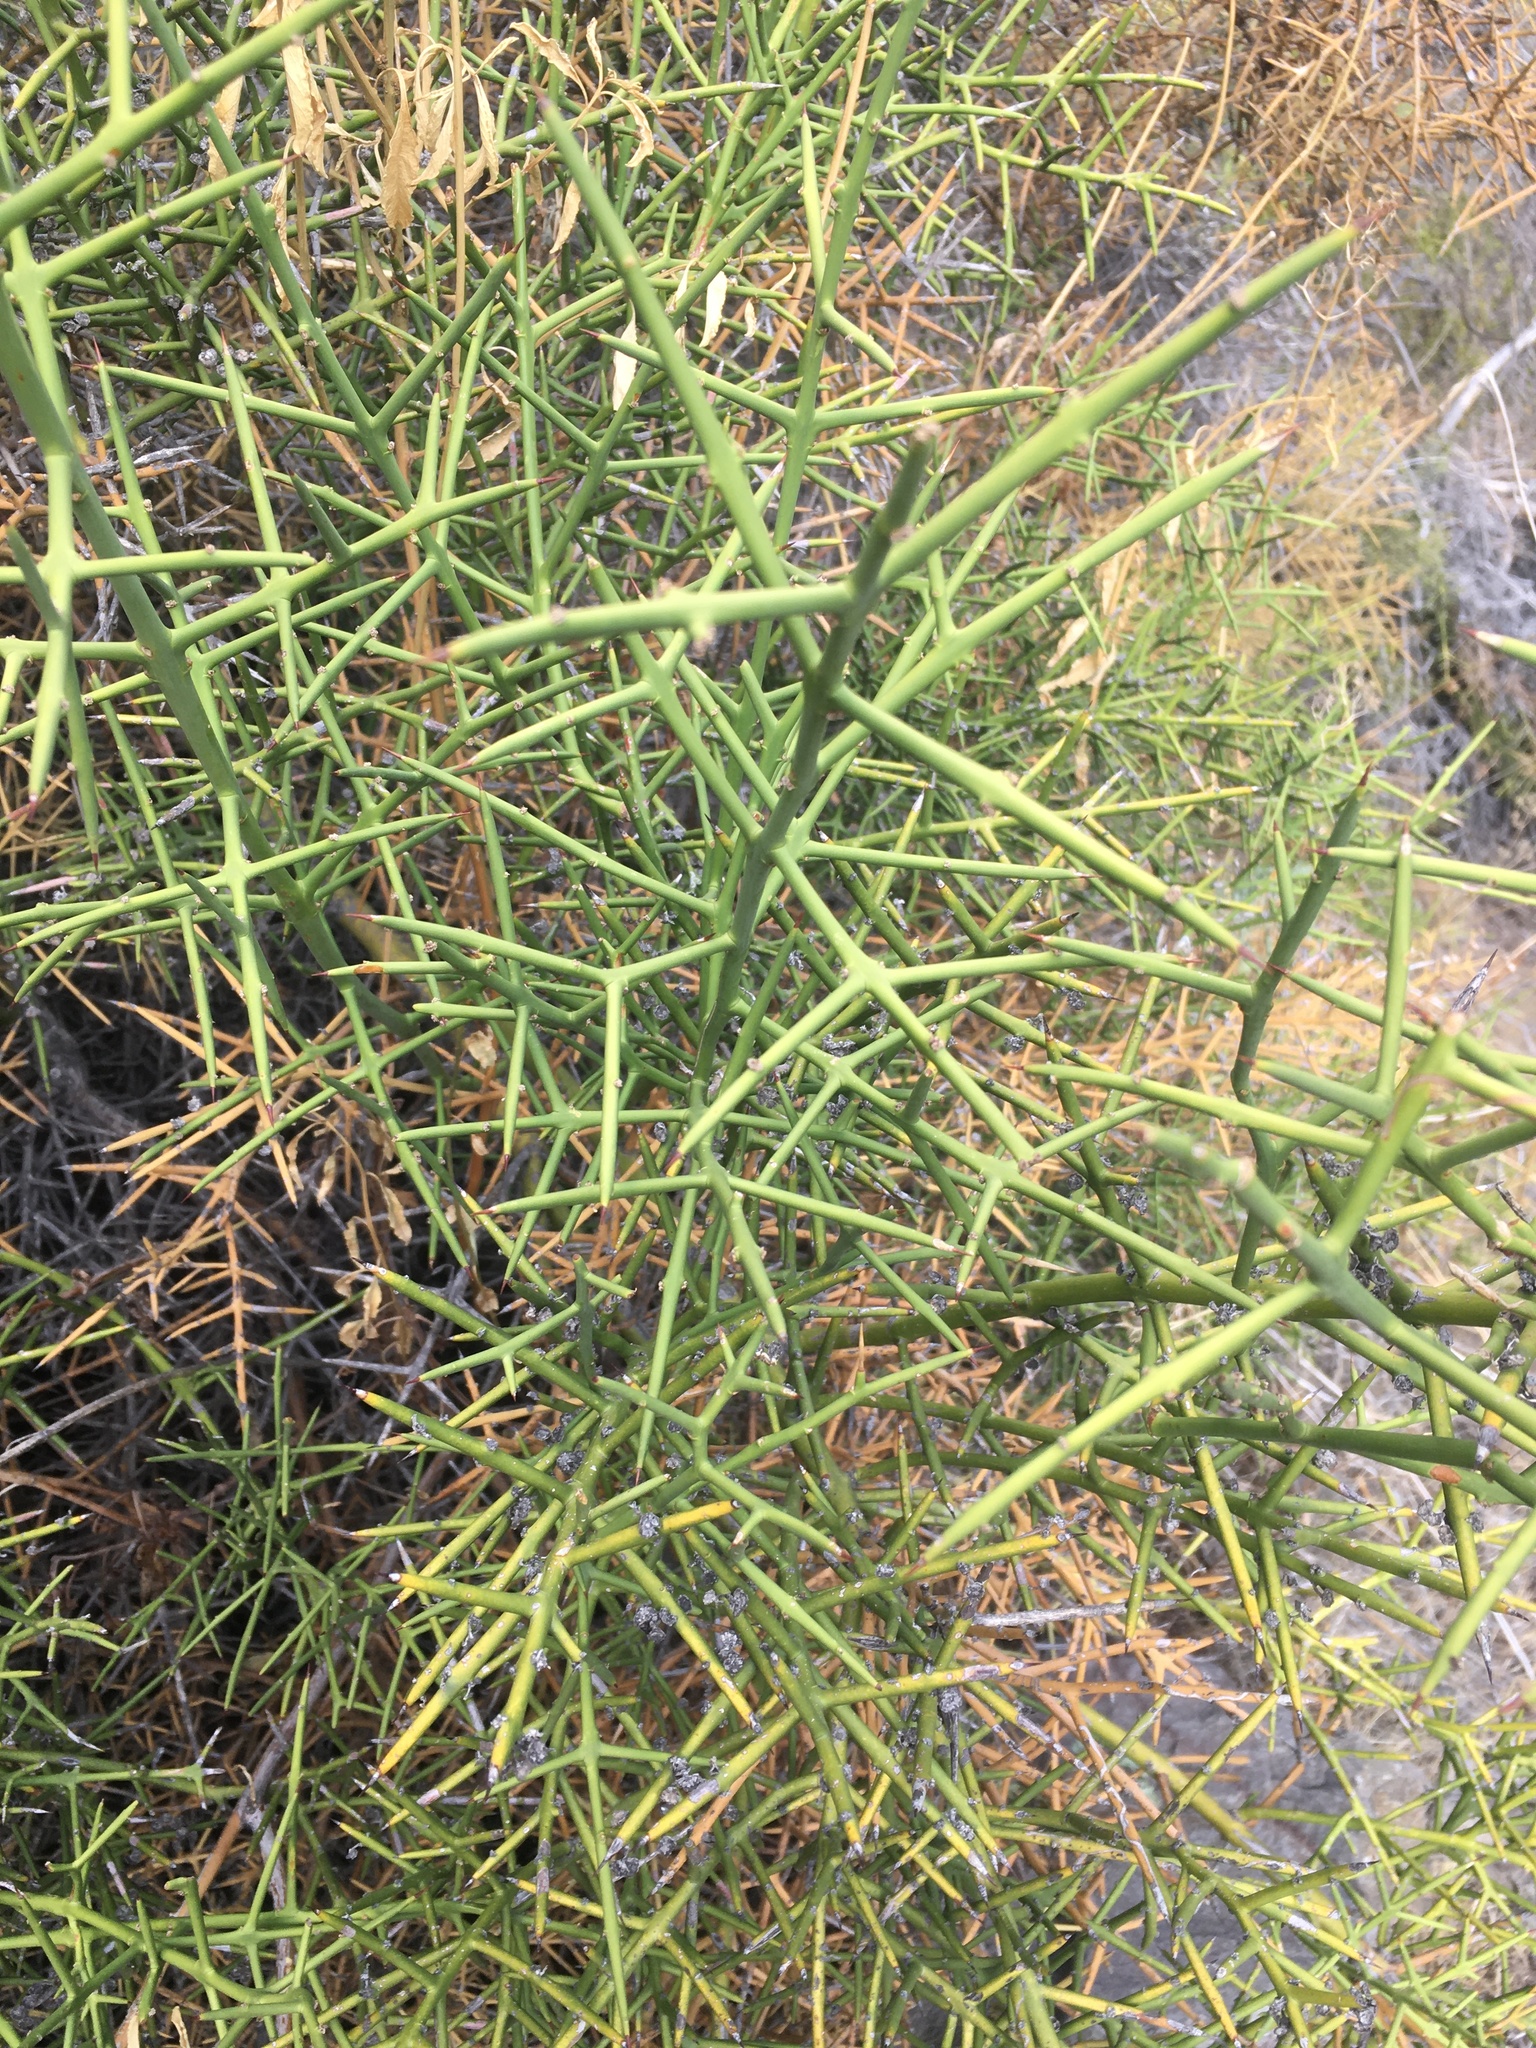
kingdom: Plantae
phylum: Tracheophyta
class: Magnoliopsida
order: Rosales
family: Rhamnaceae
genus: Colletia
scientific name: Colletia hystrix
